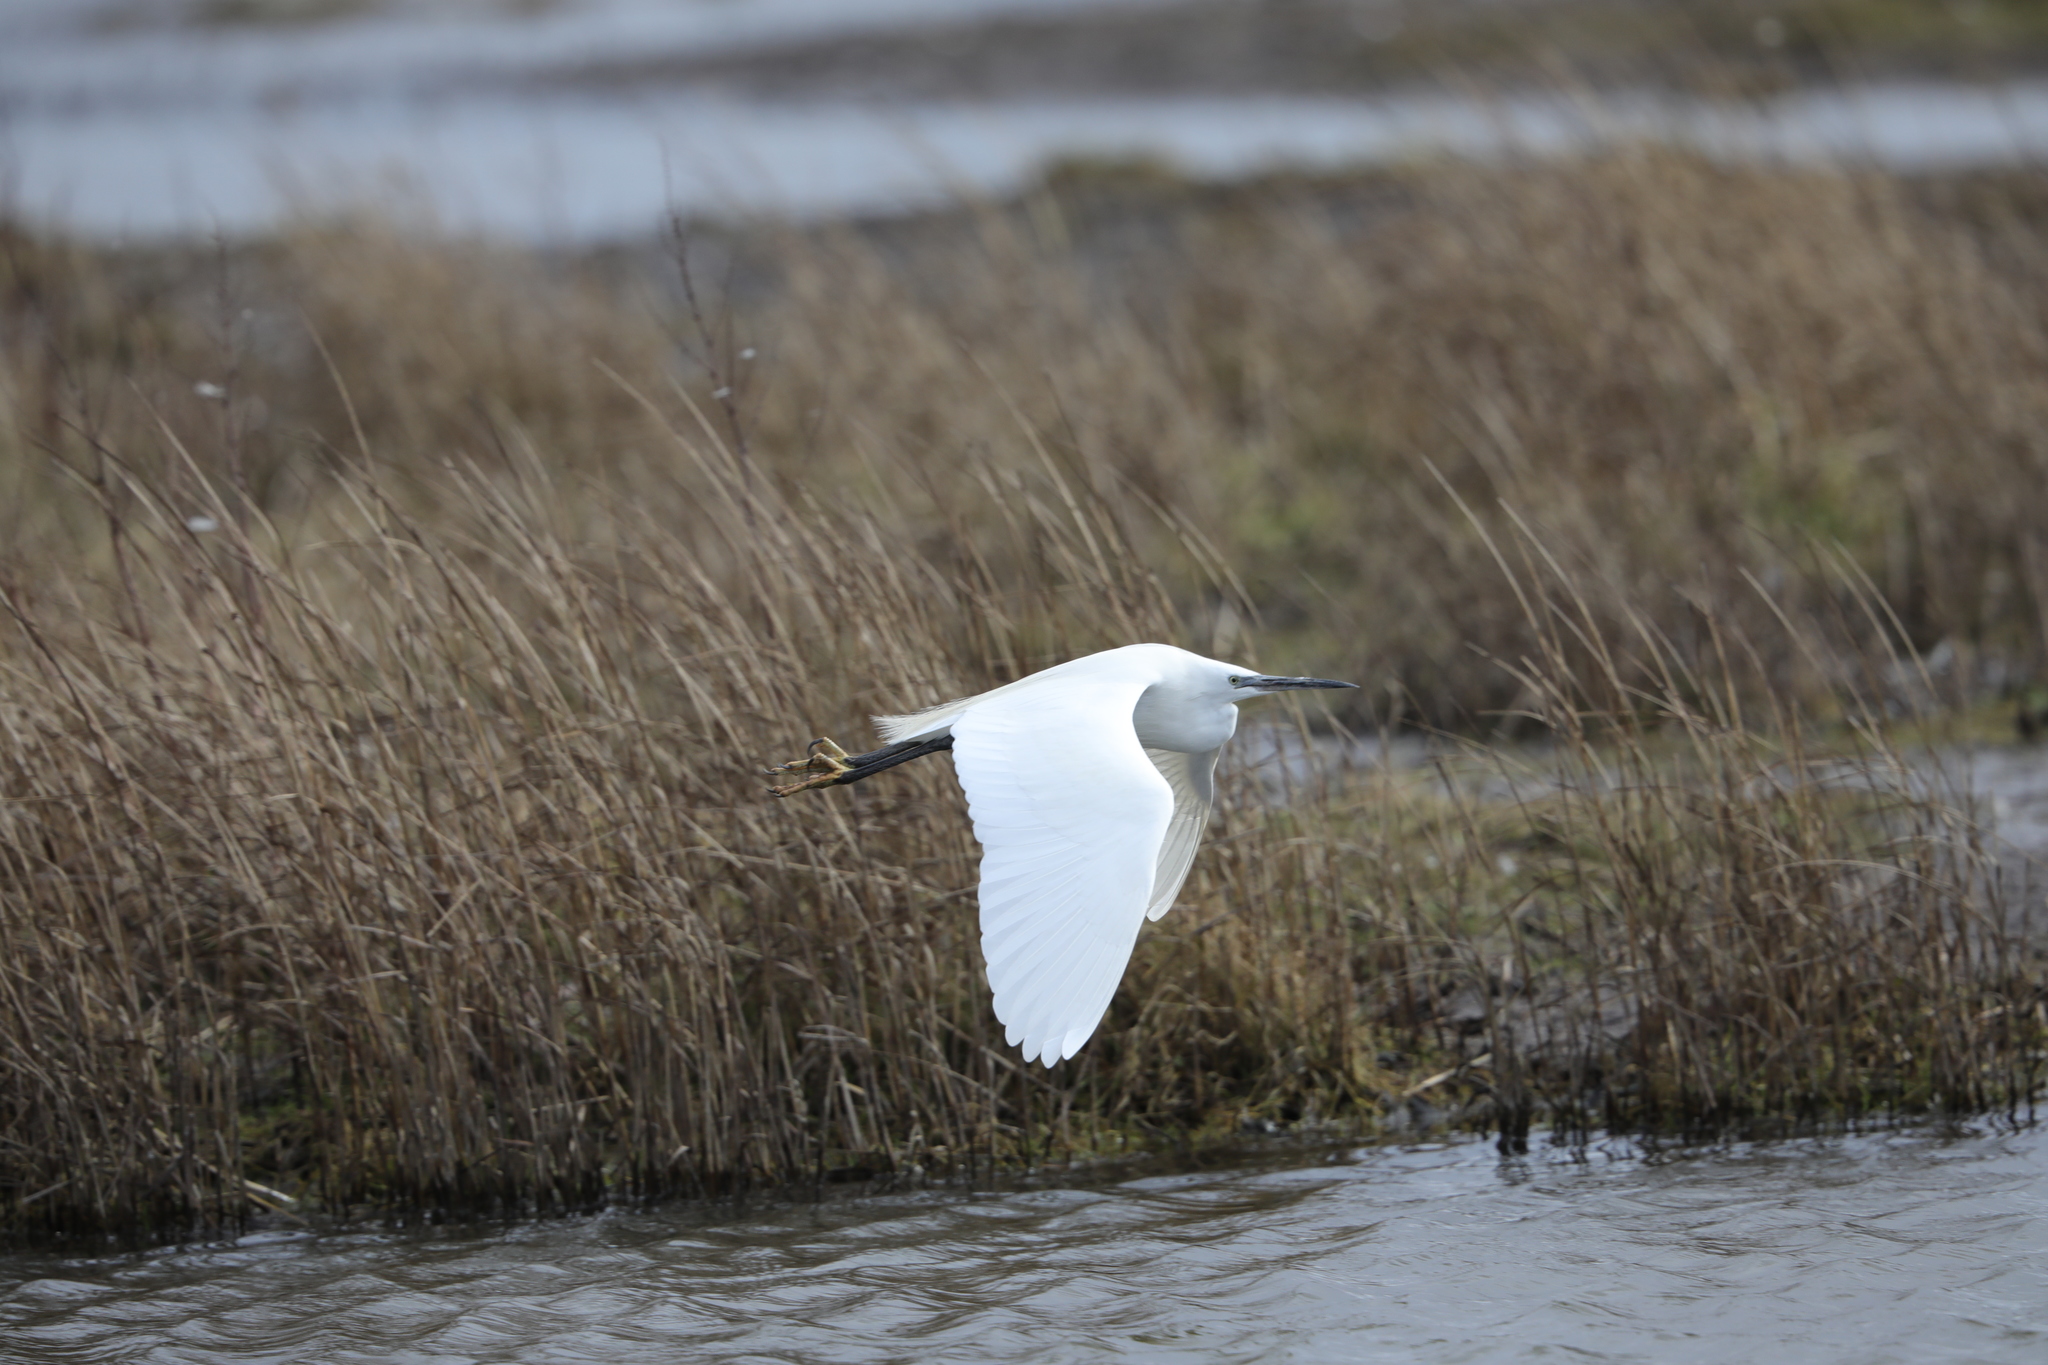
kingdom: Animalia
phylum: Chordata
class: Aves
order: Pelecaniformes
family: Ardeidae
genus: Egretta
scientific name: Egretta garzetta
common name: Little egret
